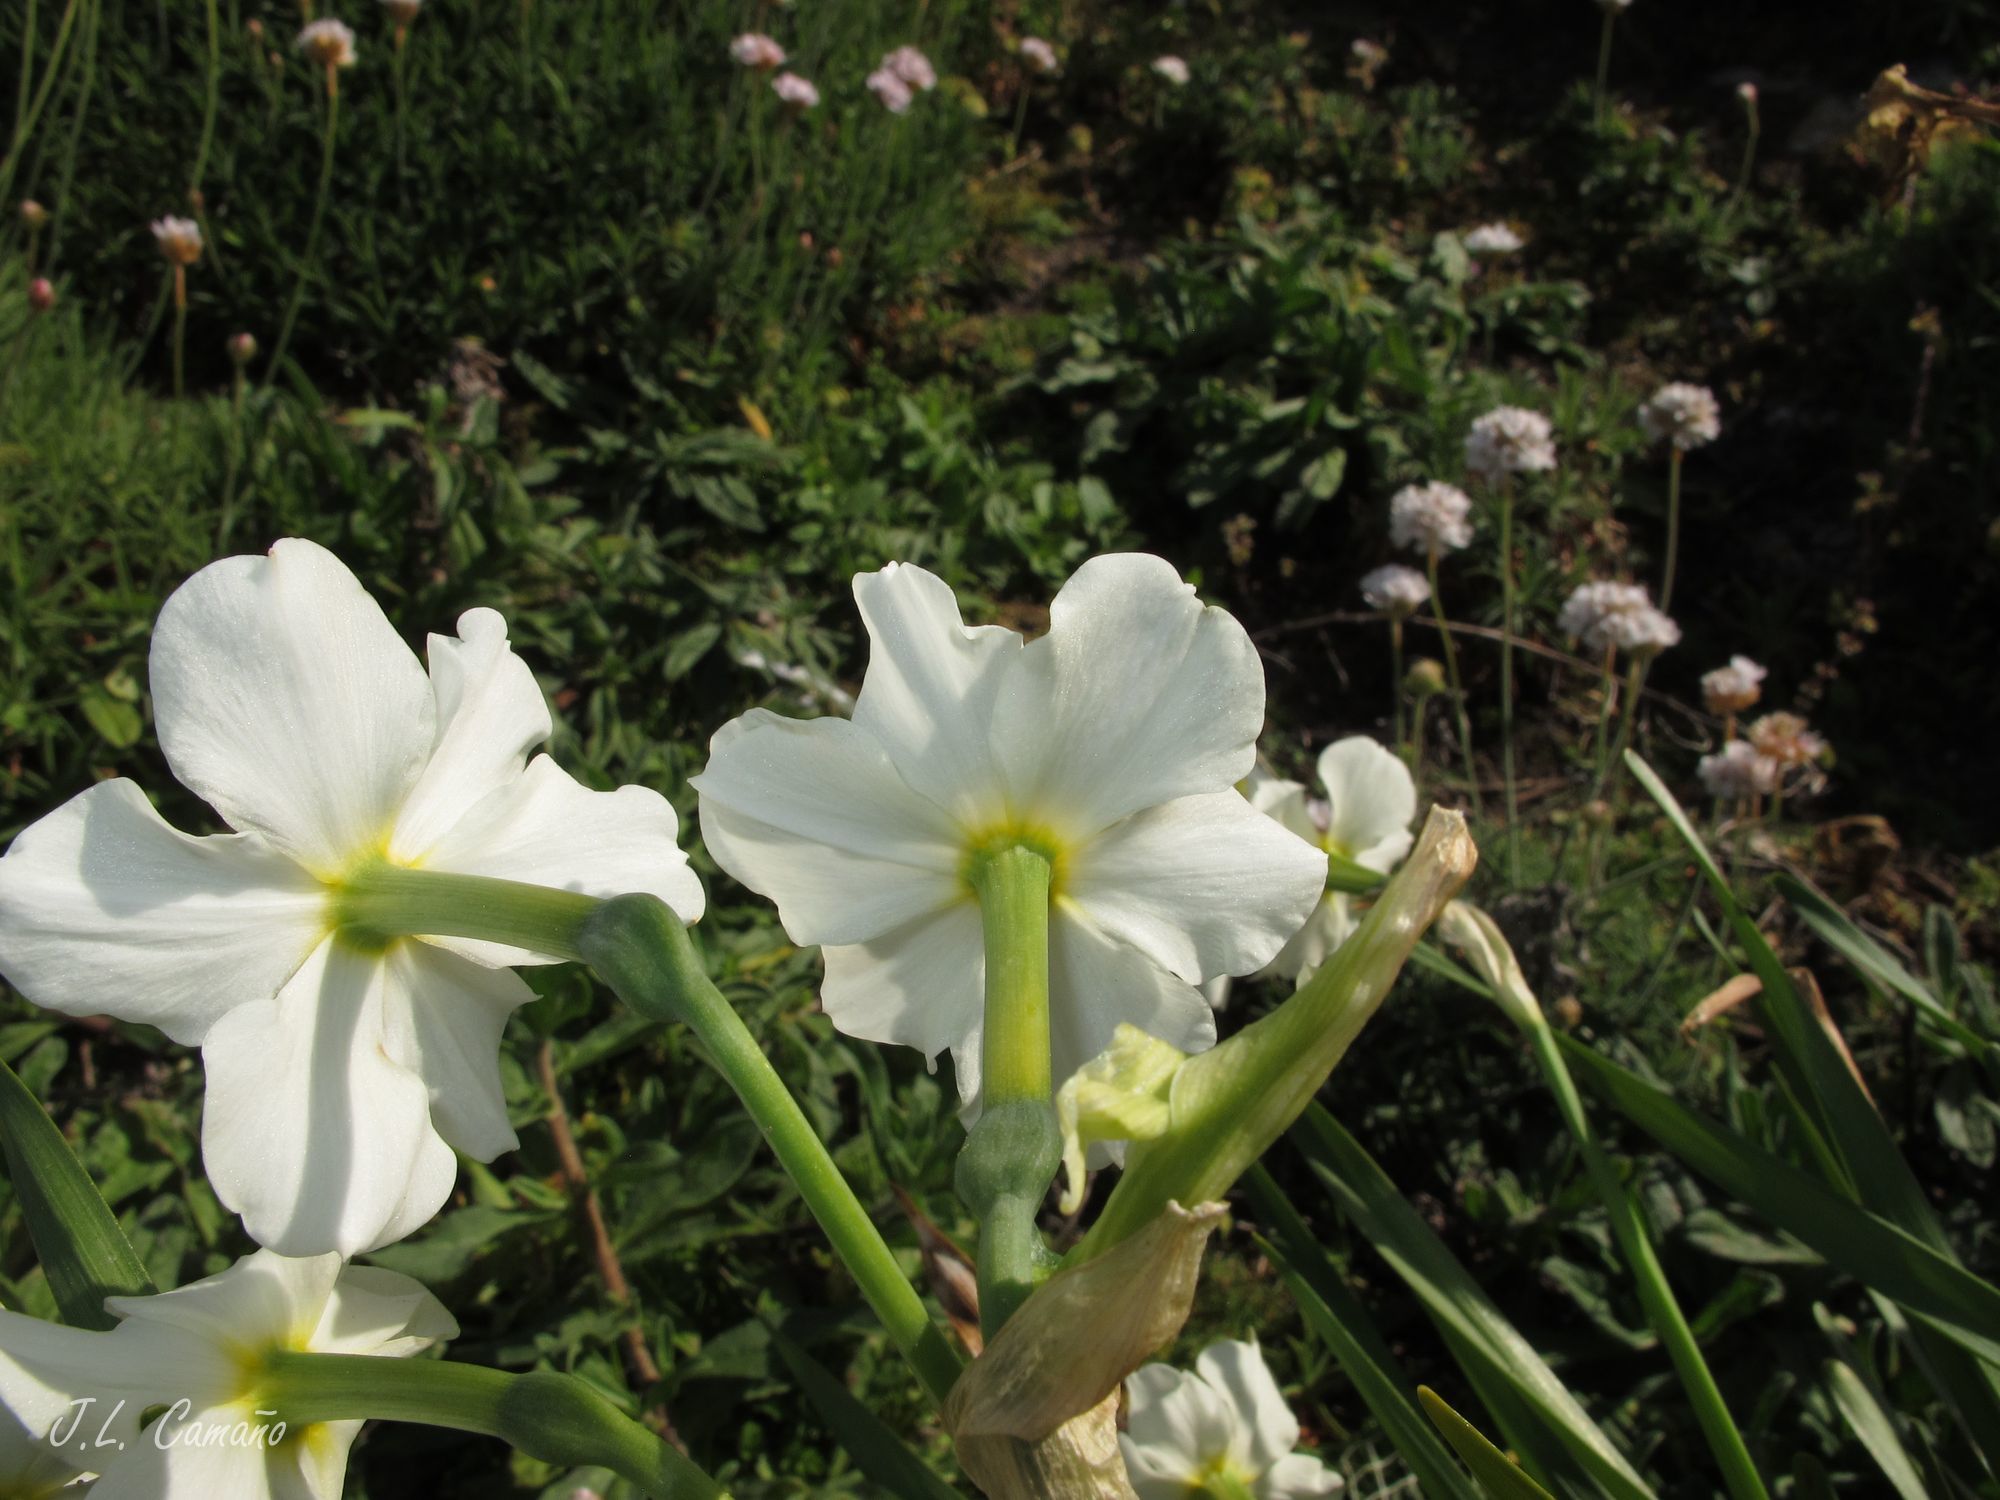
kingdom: Plantae
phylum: Tracheophyta
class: Liliopsida
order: Asparagales
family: Amaryllidaceae
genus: Narcissus
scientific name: Narcissus tazetta
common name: Bunch-flowered daffodil
